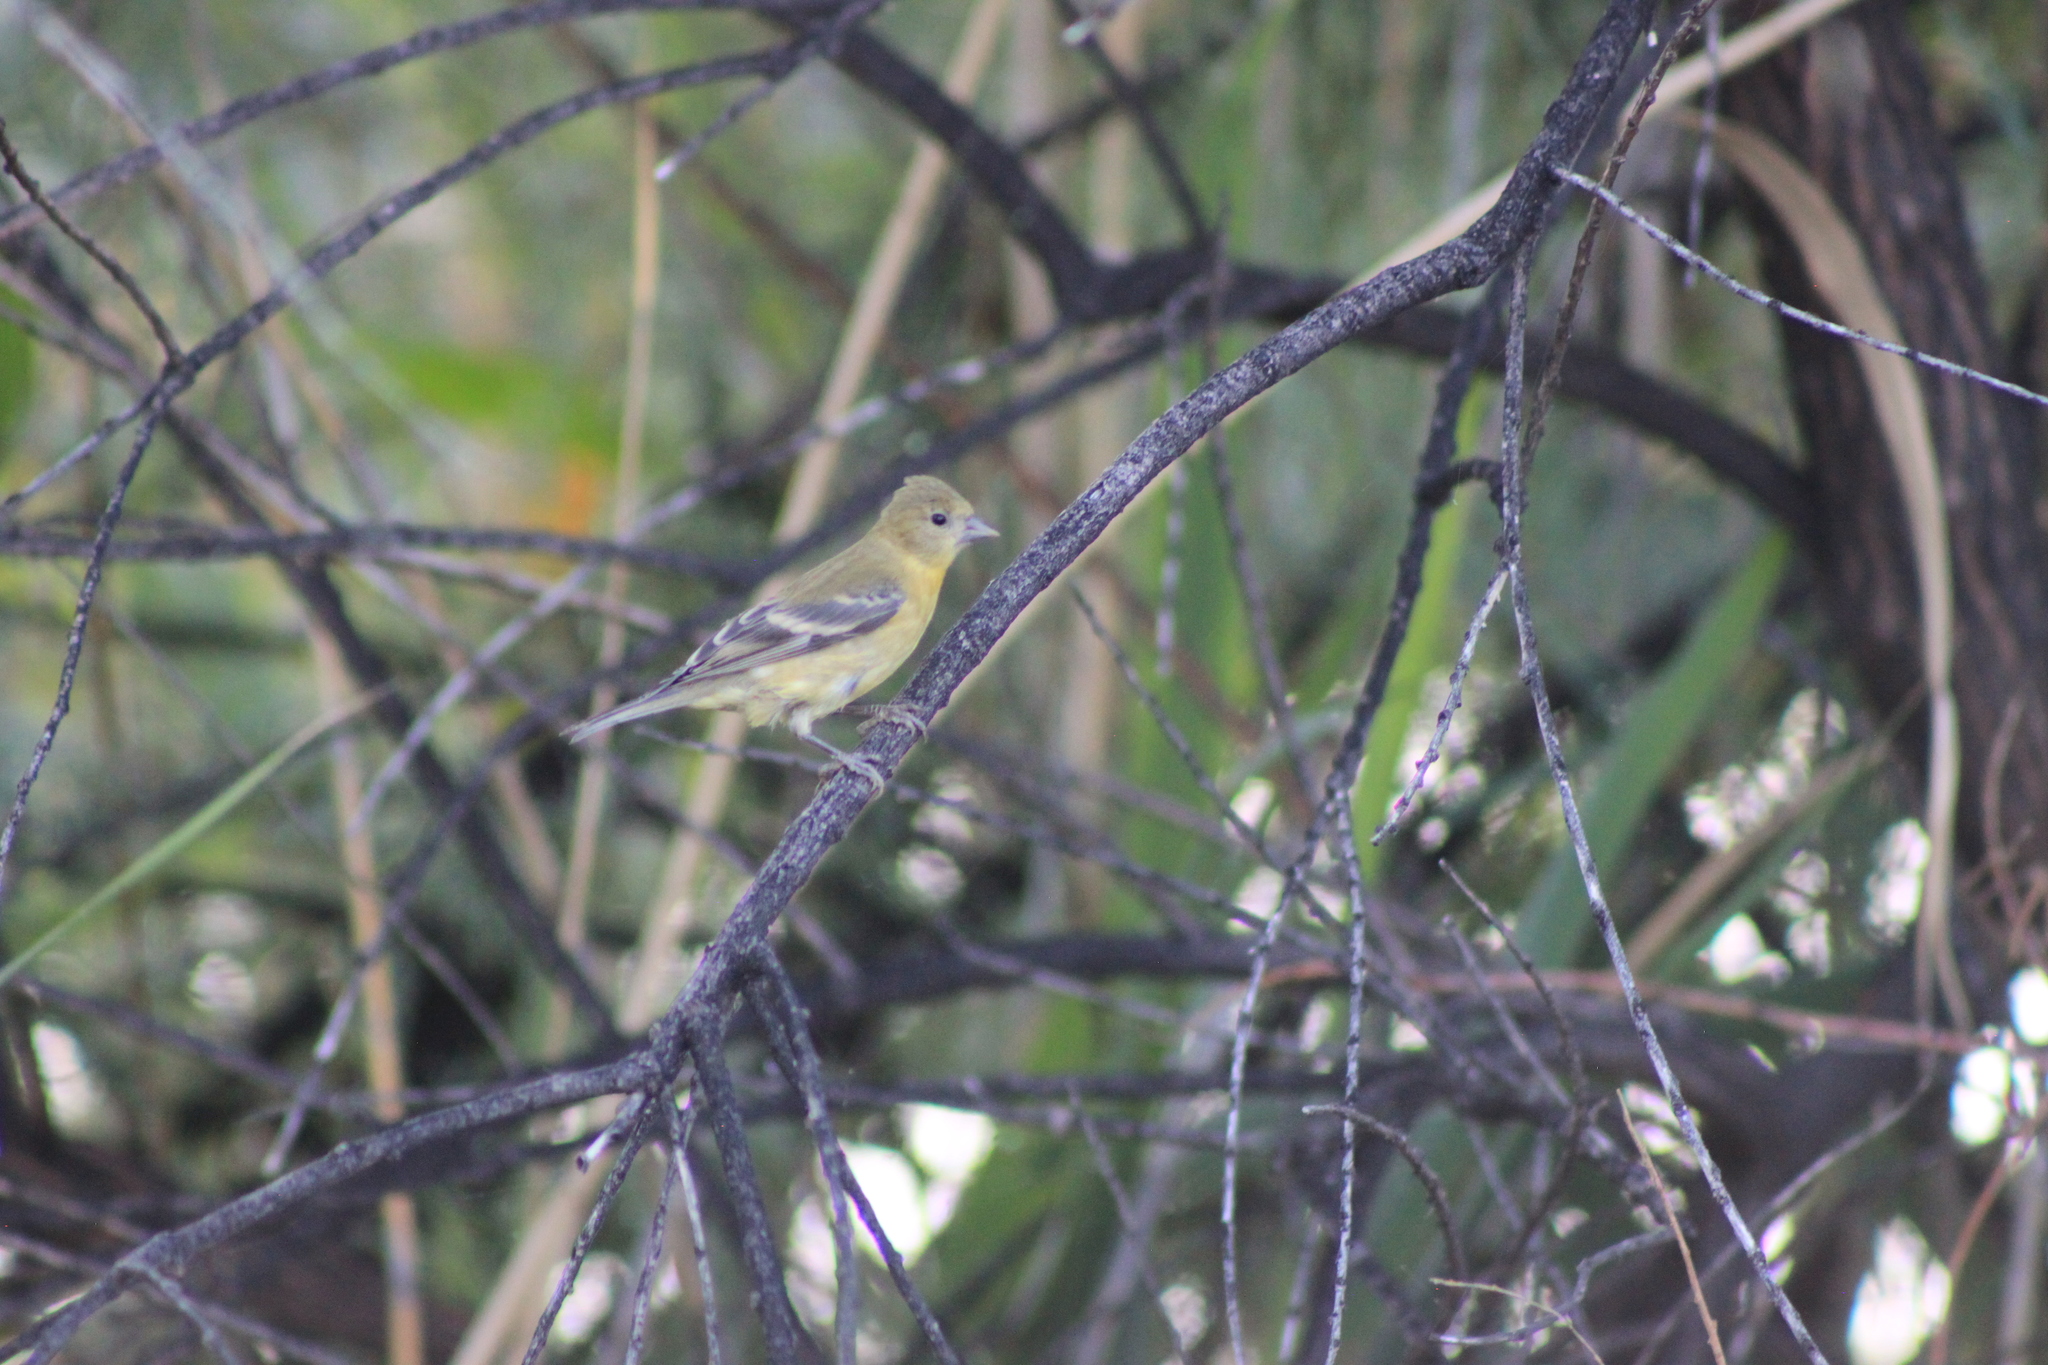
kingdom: Animalia
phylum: Chordata
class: Aves
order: Passeriformes
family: Fringillidae
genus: Spinus
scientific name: Spinus psaltria
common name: Lesser goldfinch
